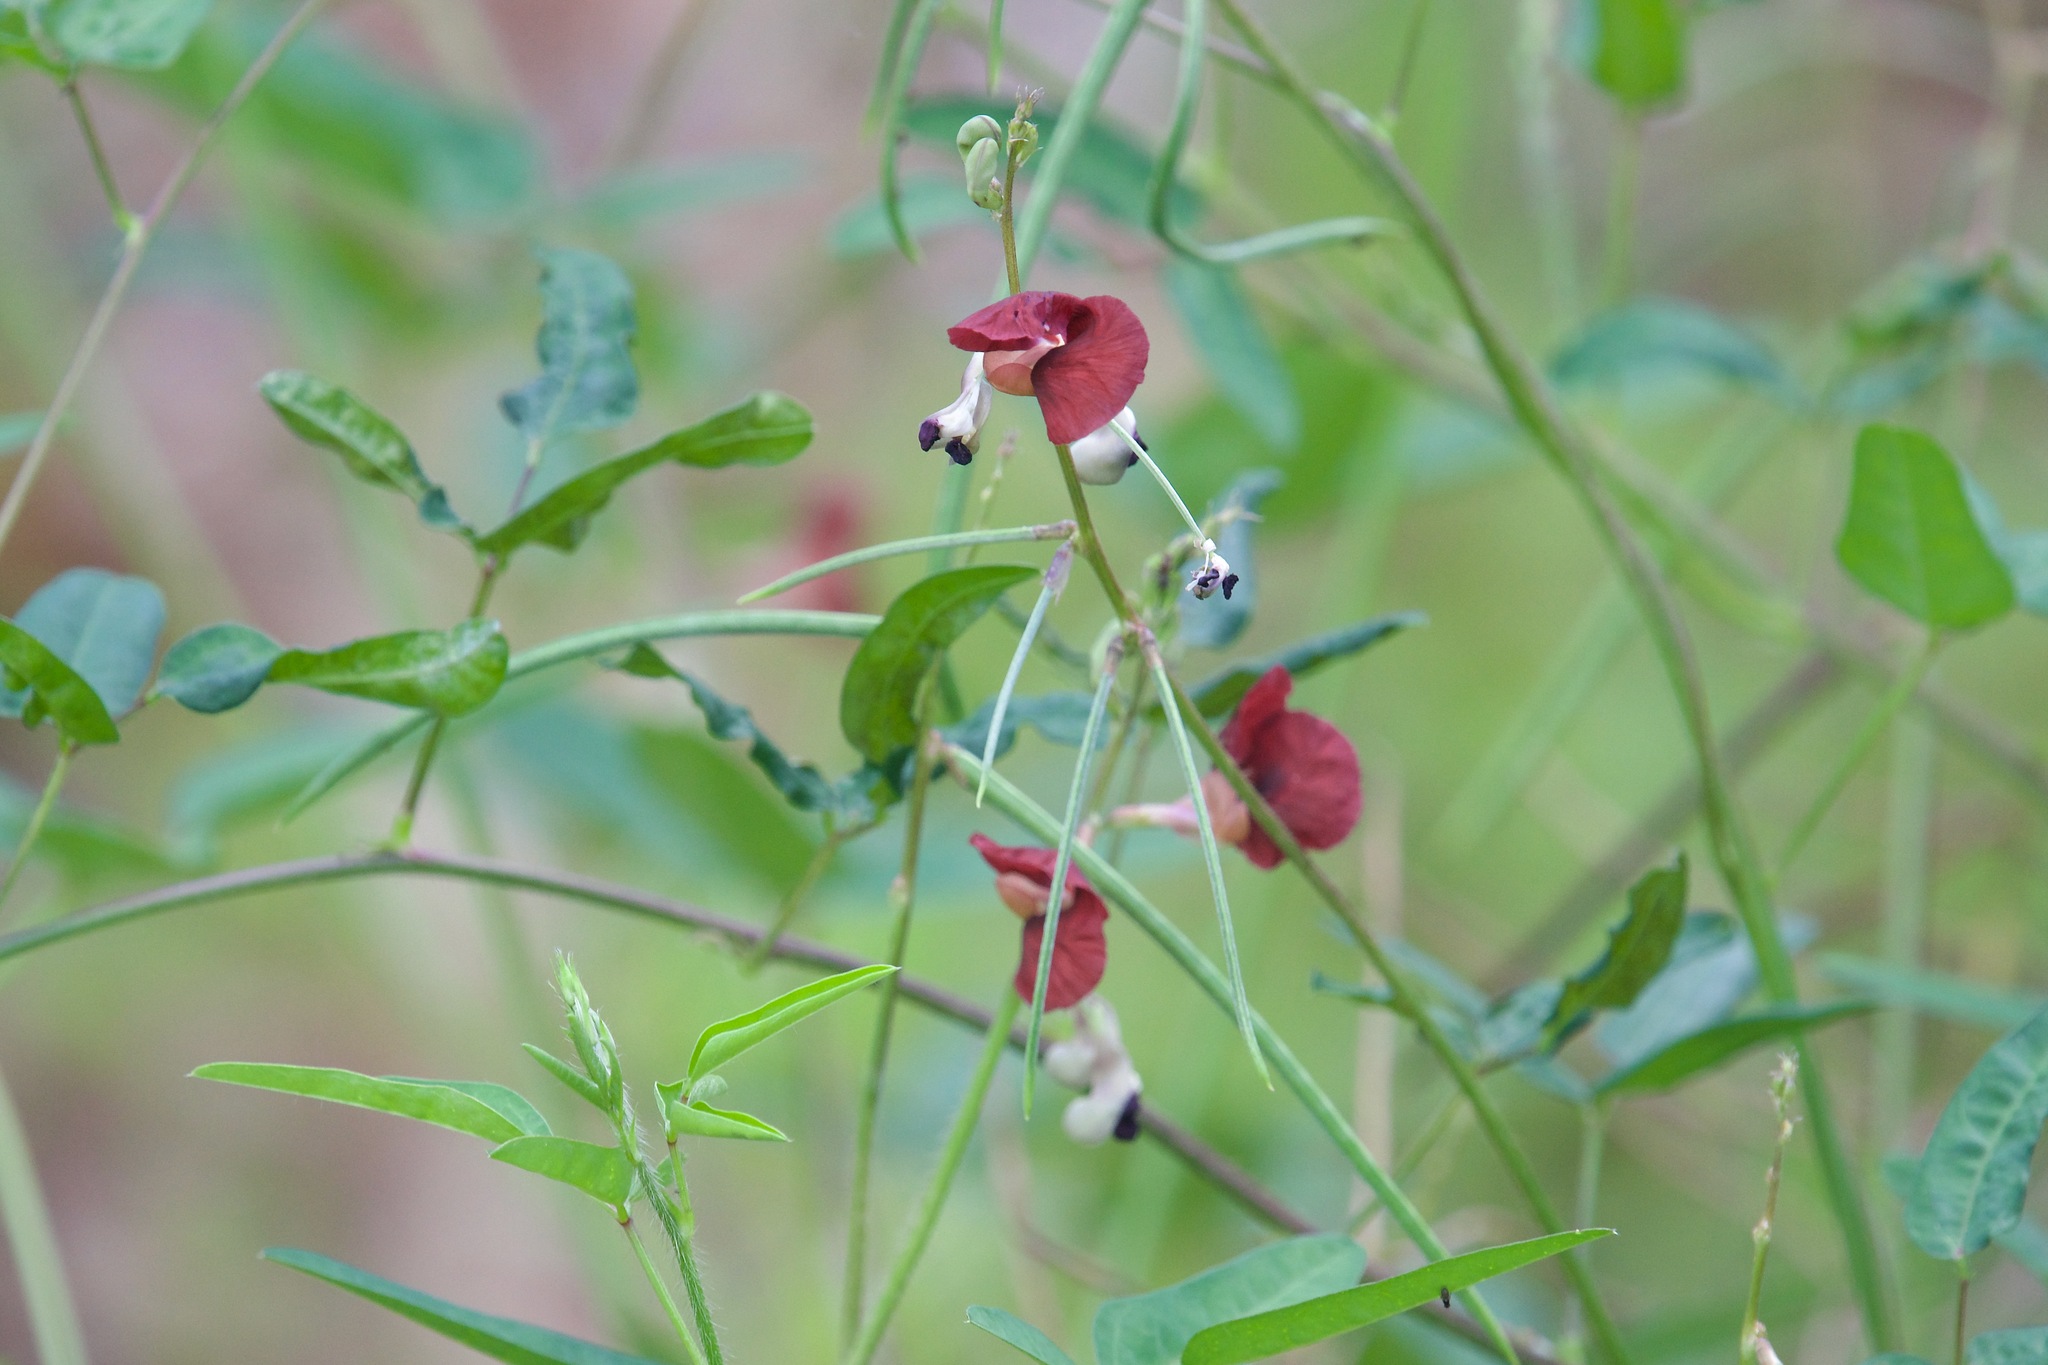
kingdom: Plantae
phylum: Tracheophyta
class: Magnoliopsida
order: Fabales
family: Fabaceae
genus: Macroptilium
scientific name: Macroptilium lathyroides
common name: Wild bushbean
